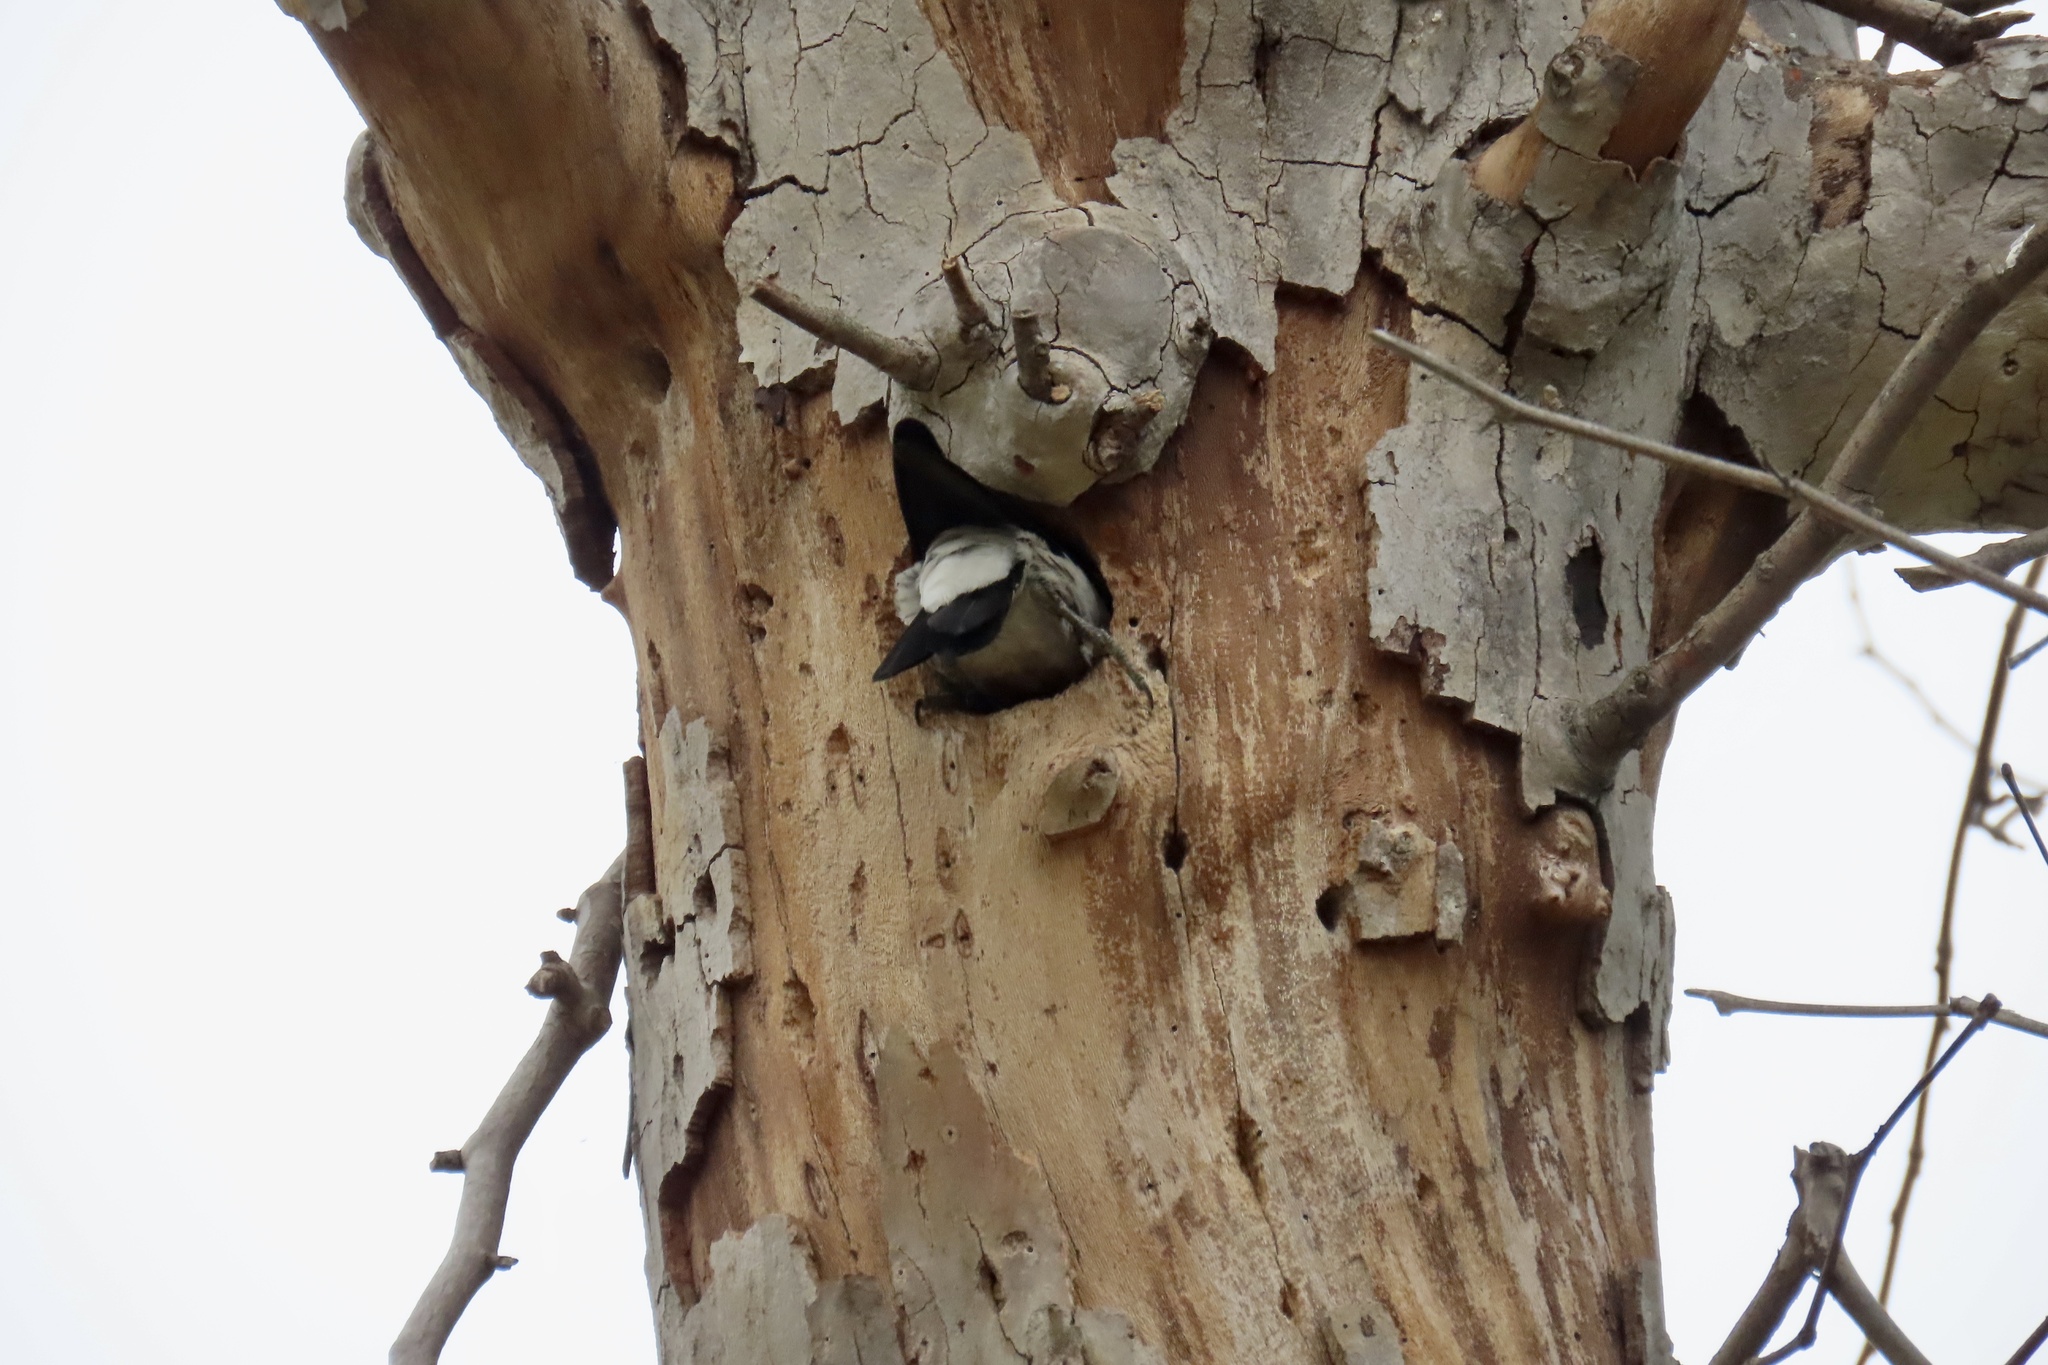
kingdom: Animalia
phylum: Chordata
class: Aves
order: Piciformes
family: Picidae
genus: Melanerpes
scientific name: Melanerpes formicivorus
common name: Acorn woodpecker
